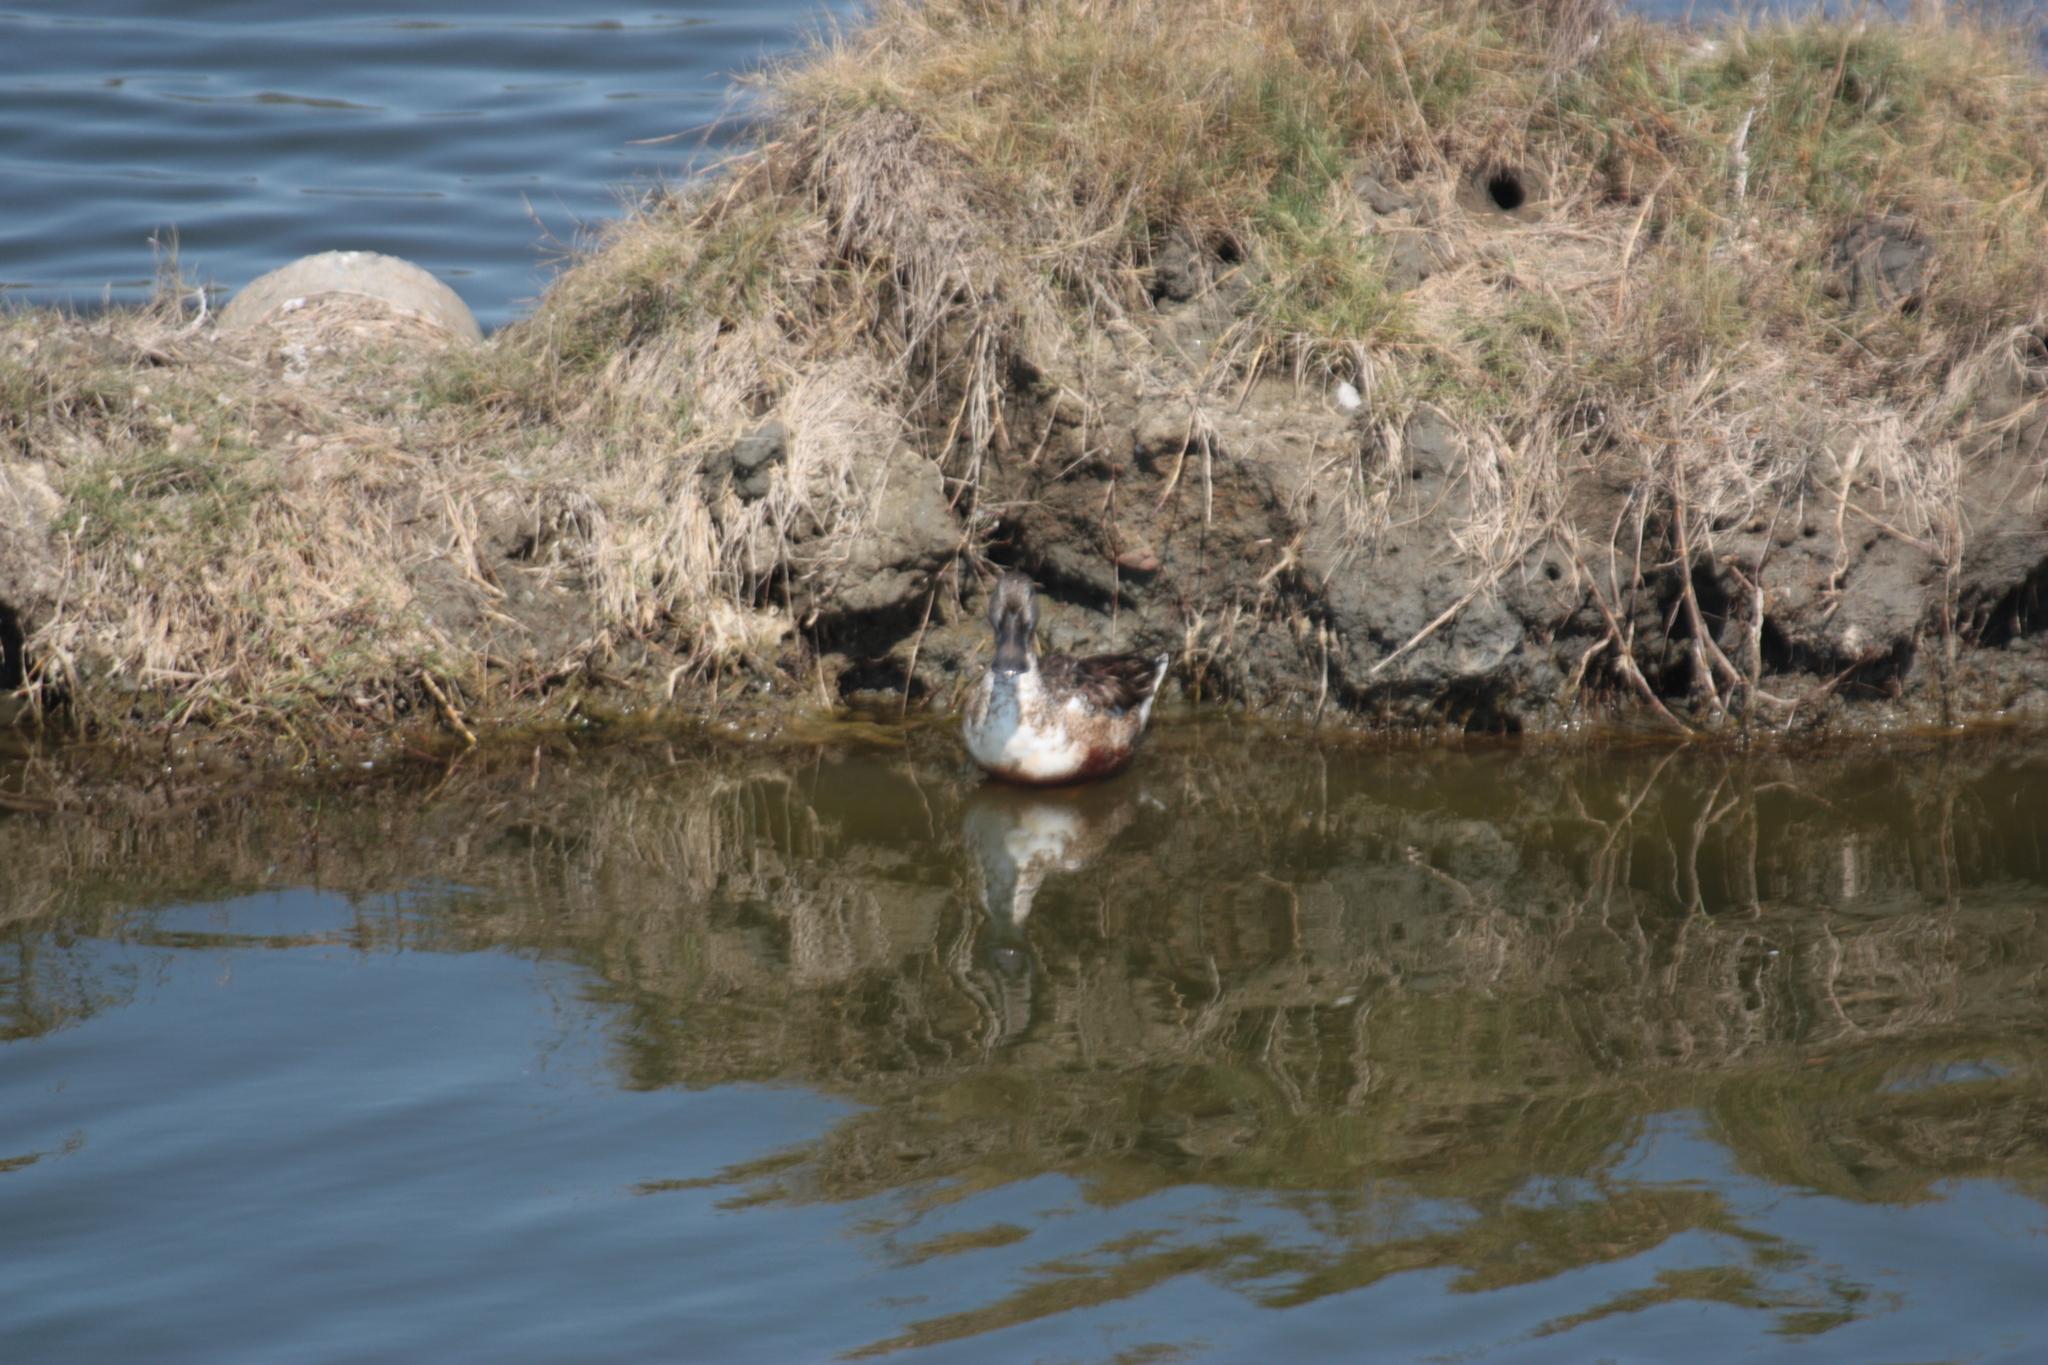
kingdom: Animalia
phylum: Chordata
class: Aves
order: Anseriformes
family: Anatidae
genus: Spatula
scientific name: Spatula clypeata
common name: Northern shoveler
